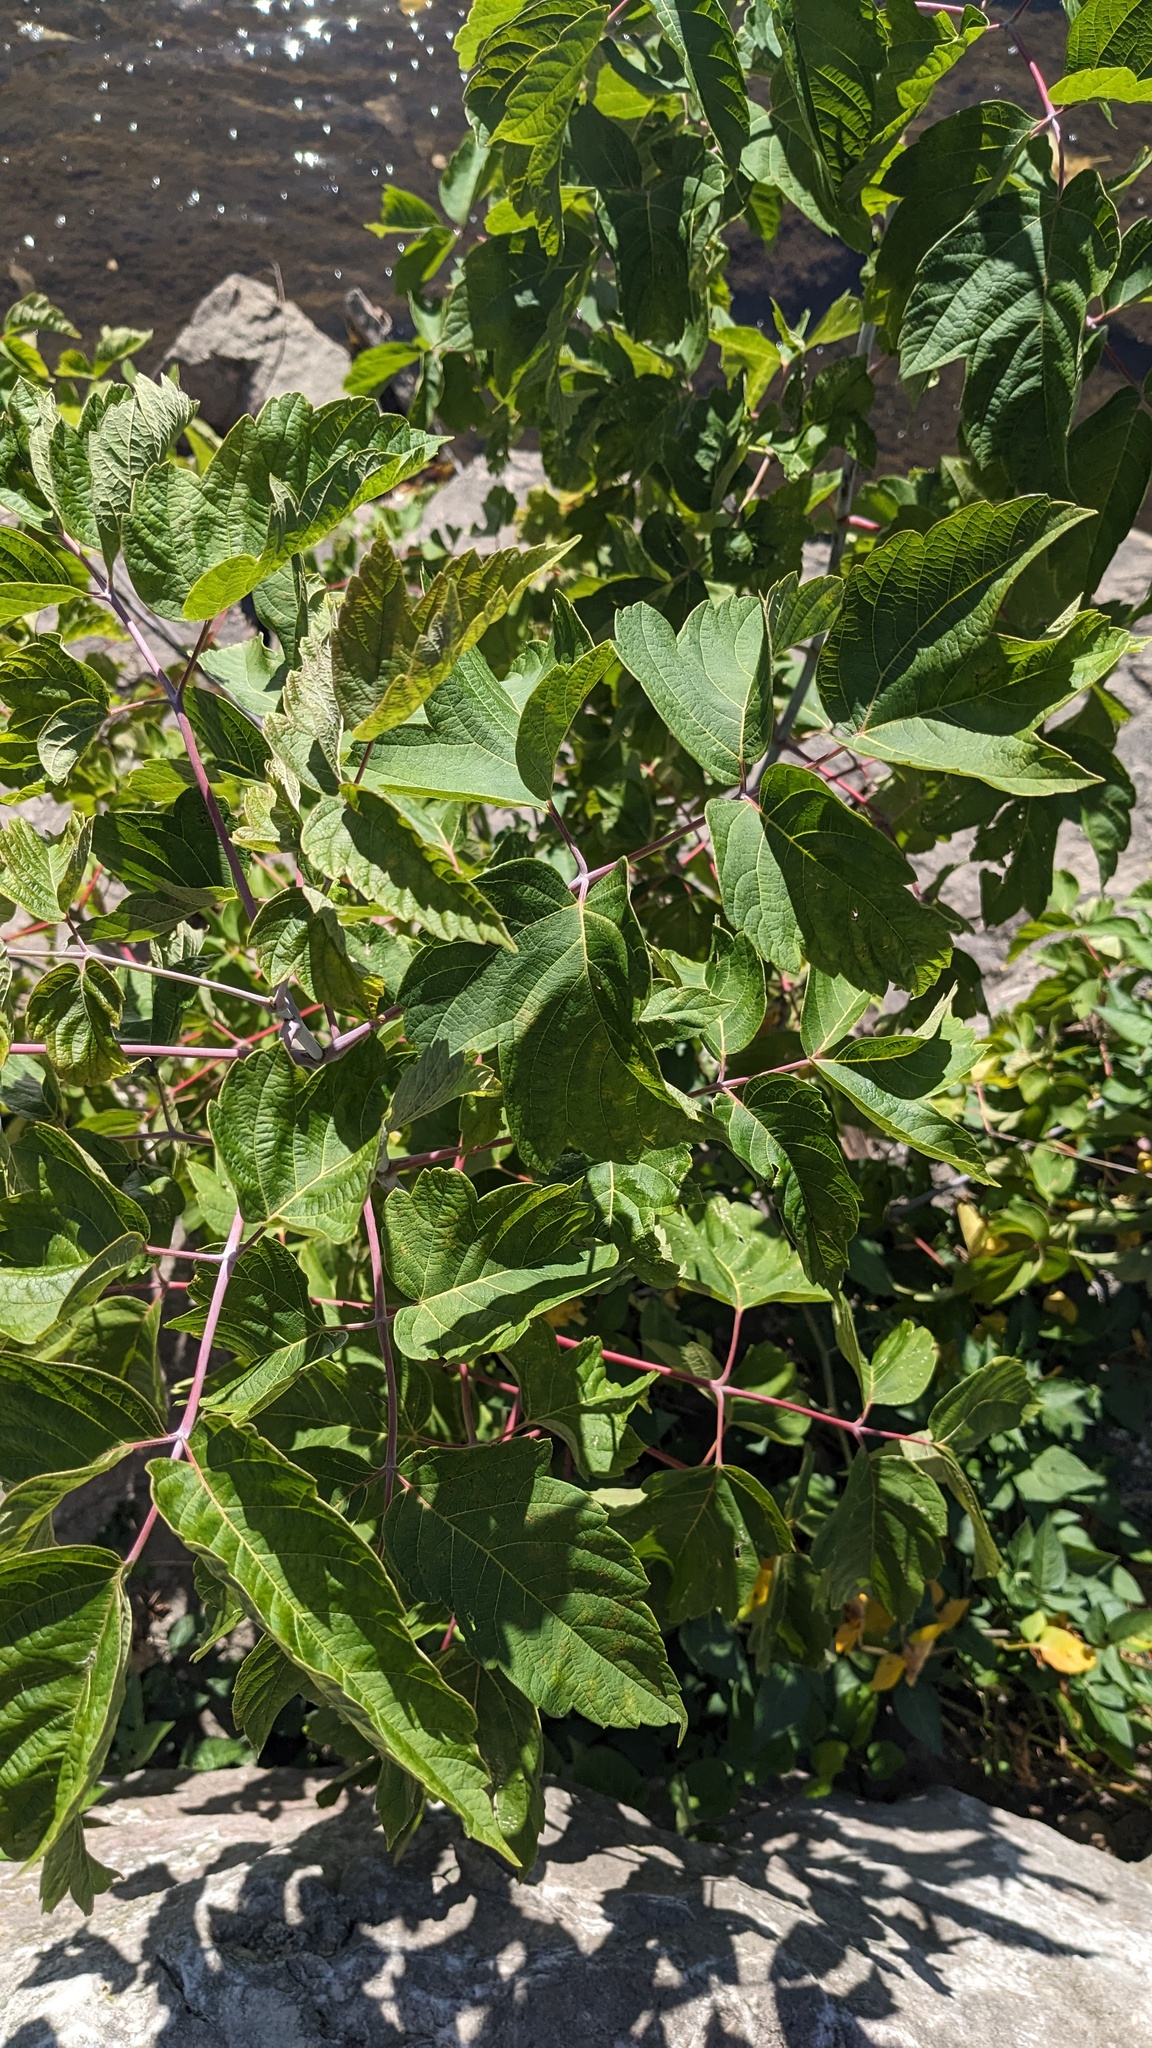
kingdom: Plantae
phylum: Tracheophyta
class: Magnoliopsida
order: Sapindales
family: Sapindaceae
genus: Acer
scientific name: Acer negundo
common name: Ashleaf maple
